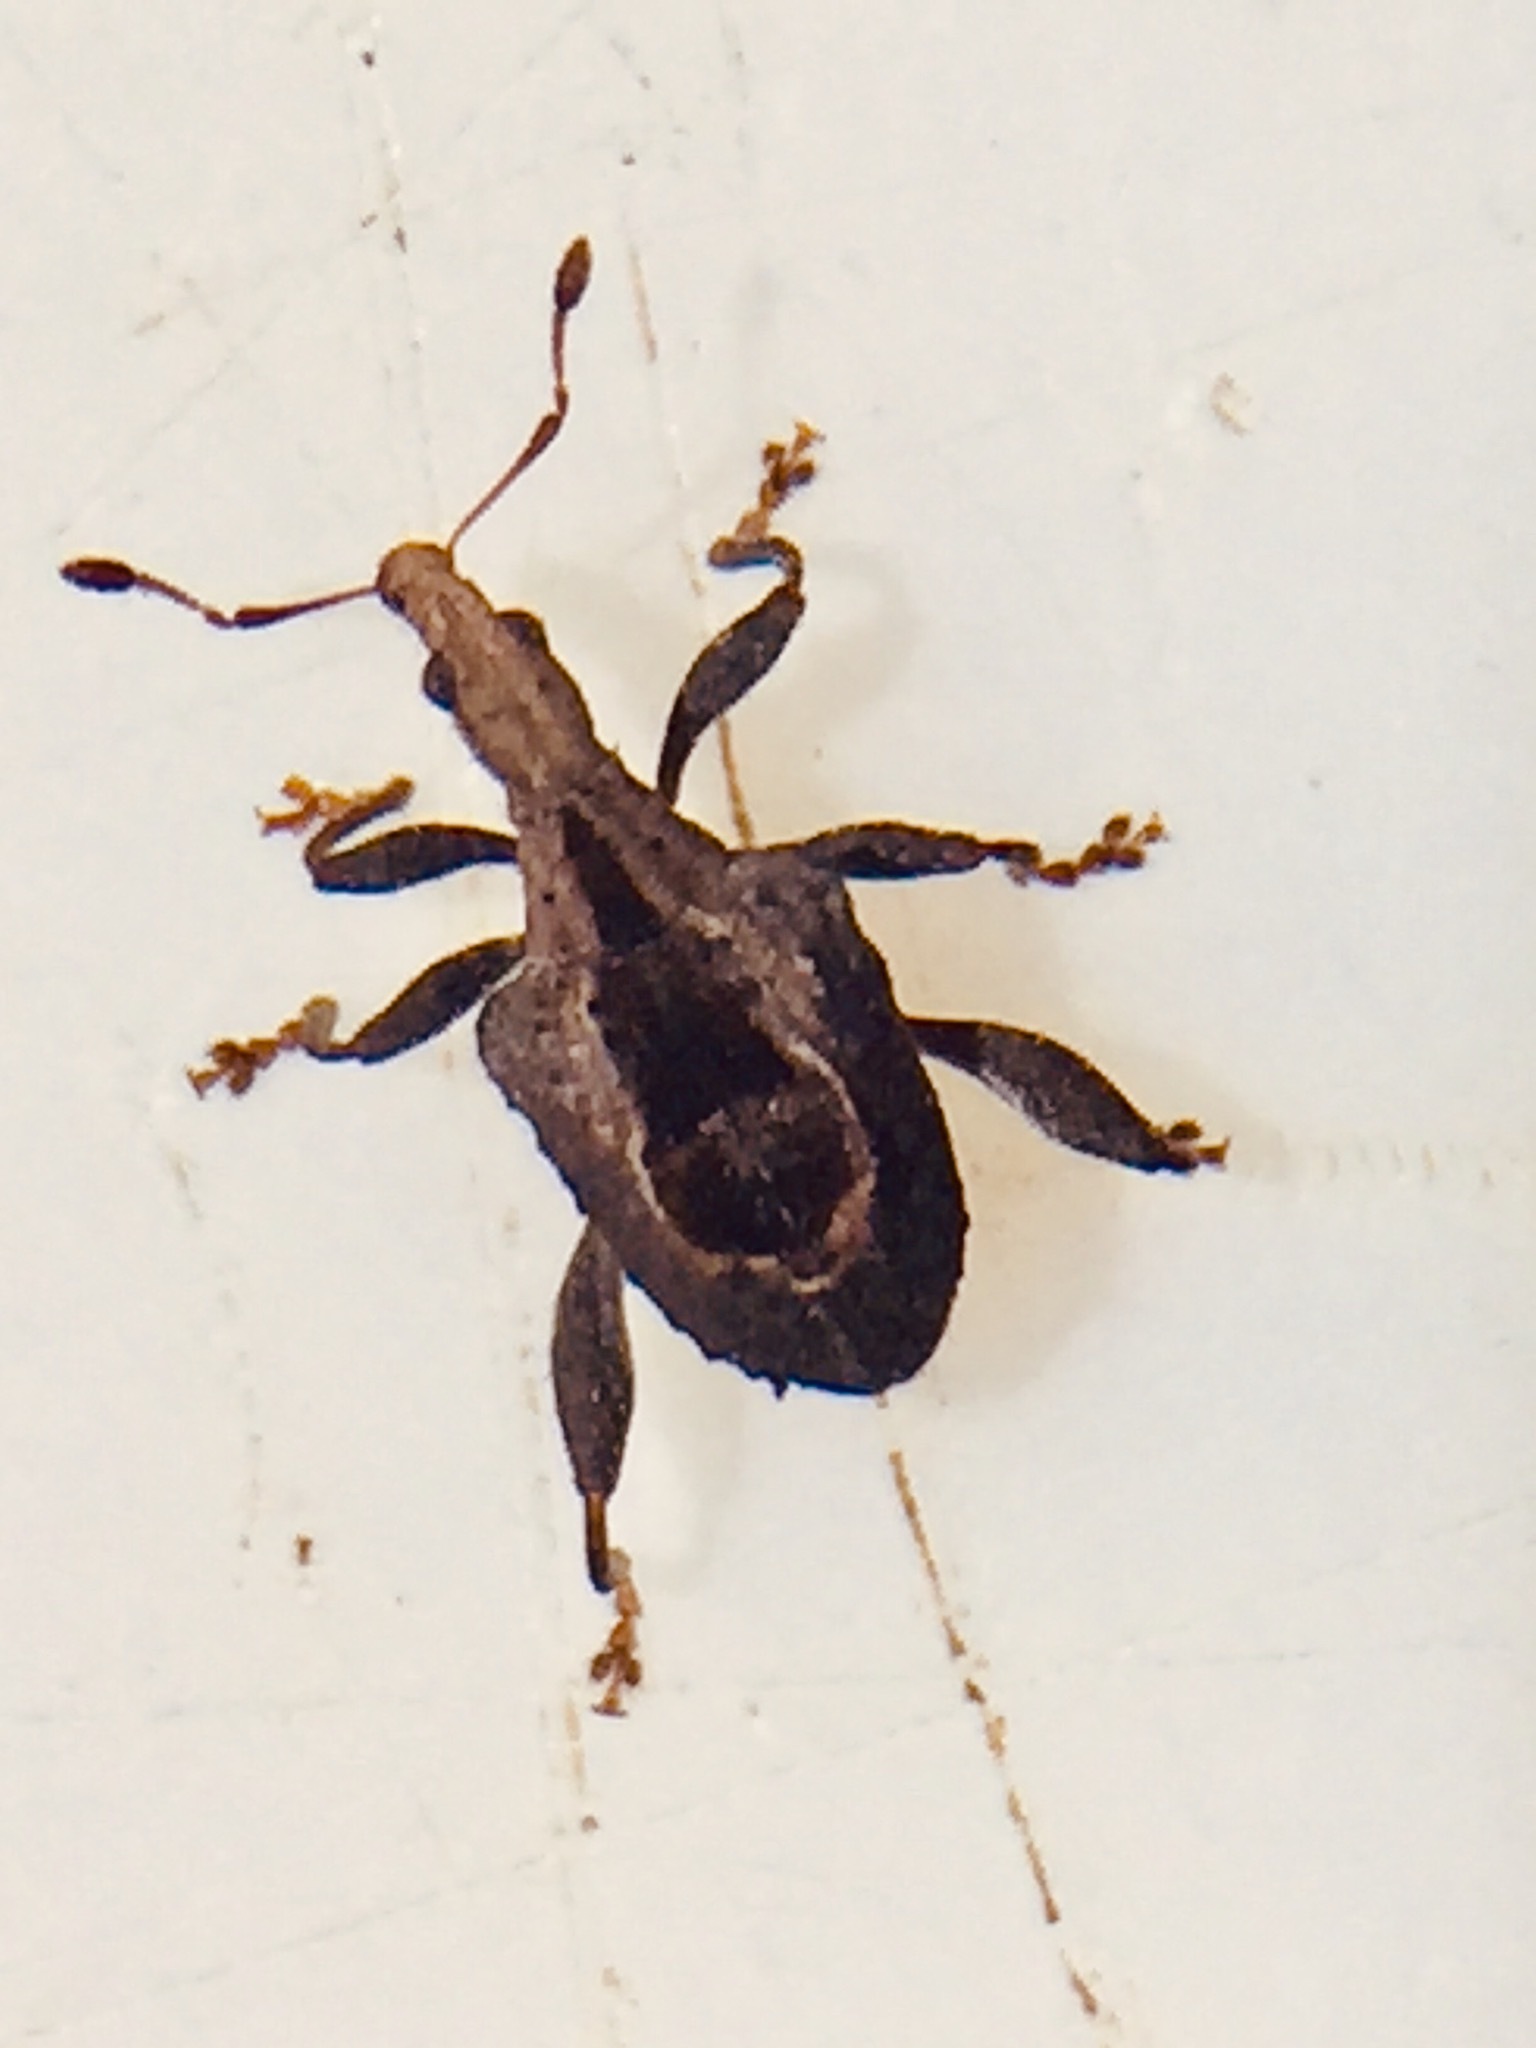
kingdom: Animalia
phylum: Arthropoda
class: Insecta
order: Coleoptera
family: Curculionidae
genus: Stephanorrhynchus
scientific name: Stephanorrhynchus crassus
